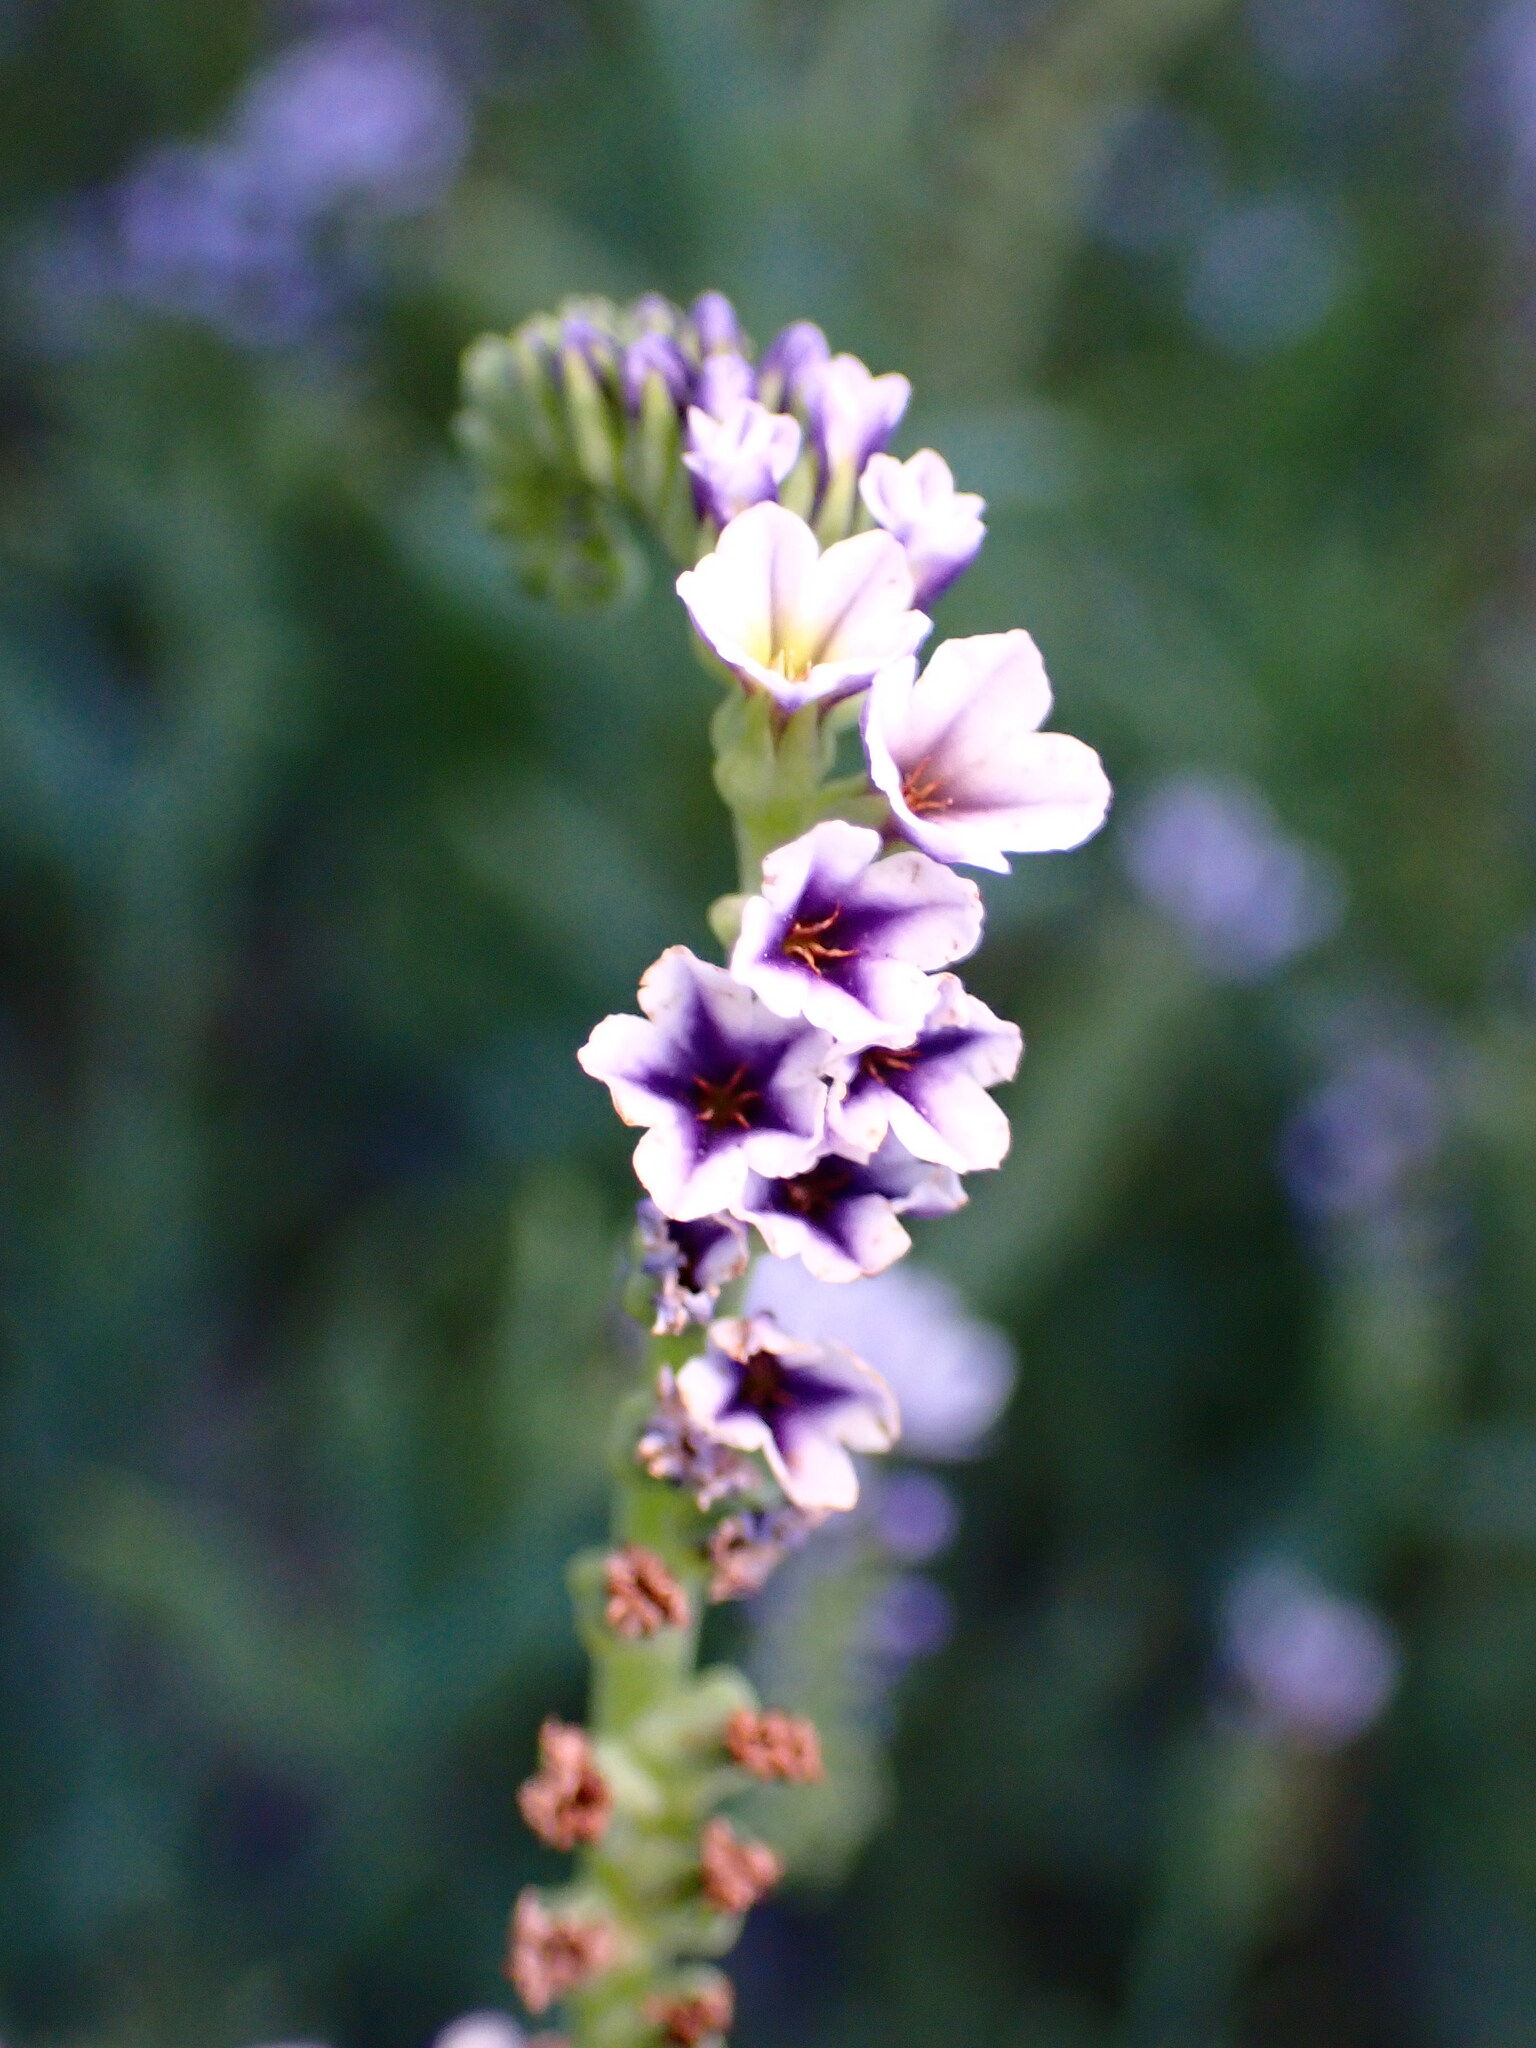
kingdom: Plantae
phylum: Tracheophyta
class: Magnoliopsida
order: Boraginales
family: Heliotropiaceae
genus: Heliotropium
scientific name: Heliotropium curassavicum
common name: Seaside heliotrope
